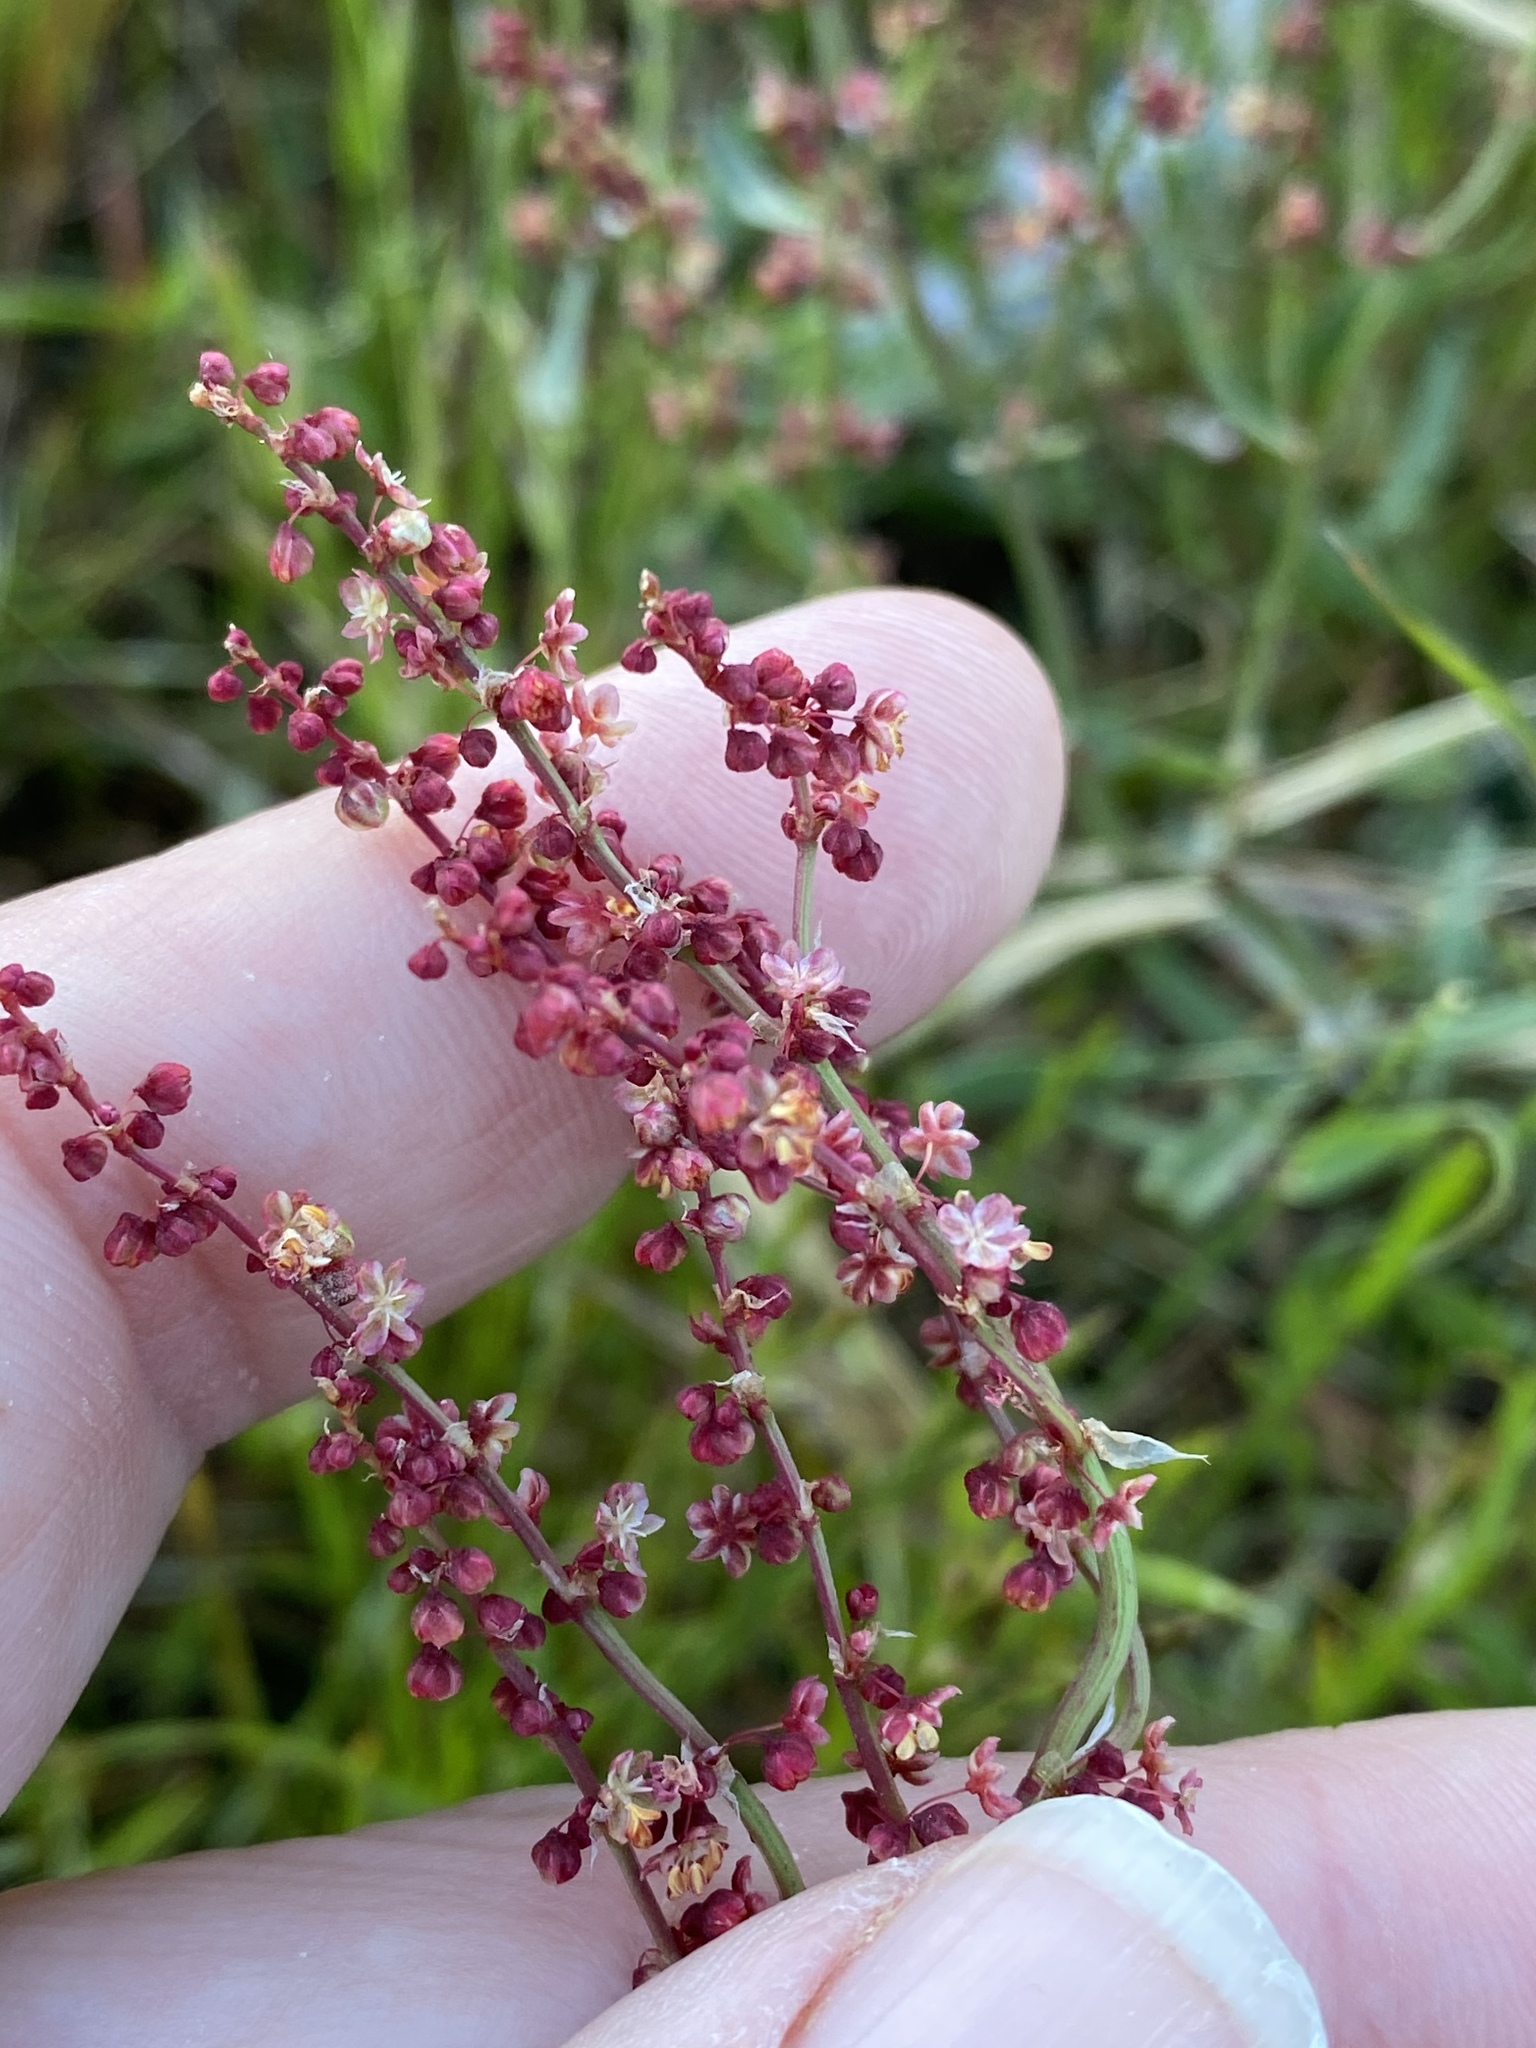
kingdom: Plantae
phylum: Tracheophyta
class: Magnoliopsida
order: Caryophyllales
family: Polygonaceae
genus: Rumex
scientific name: Rumex acetosella
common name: Common sheep sorrel
